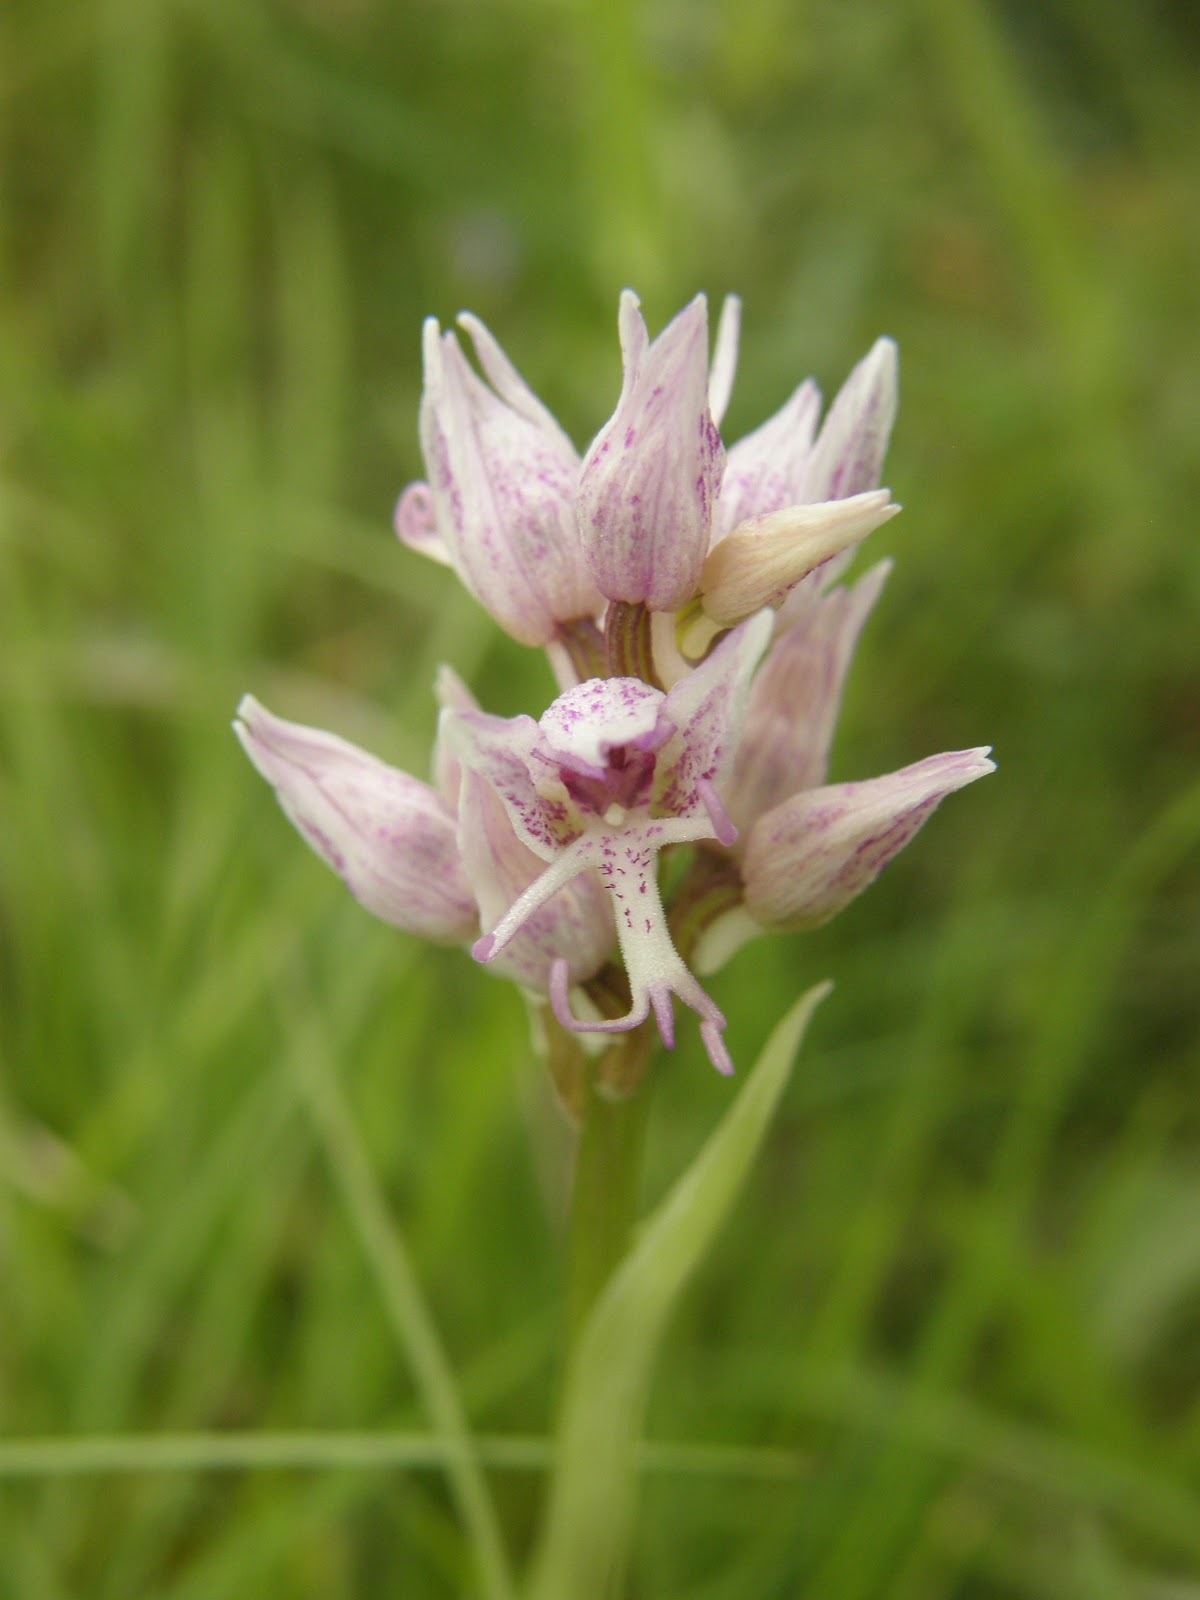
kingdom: Plantae
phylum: Tracheophyta
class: Liliopsida
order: Asparagales
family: Orchidaceae
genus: Orchis
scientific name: Orchis simia
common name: Monkey orchid
